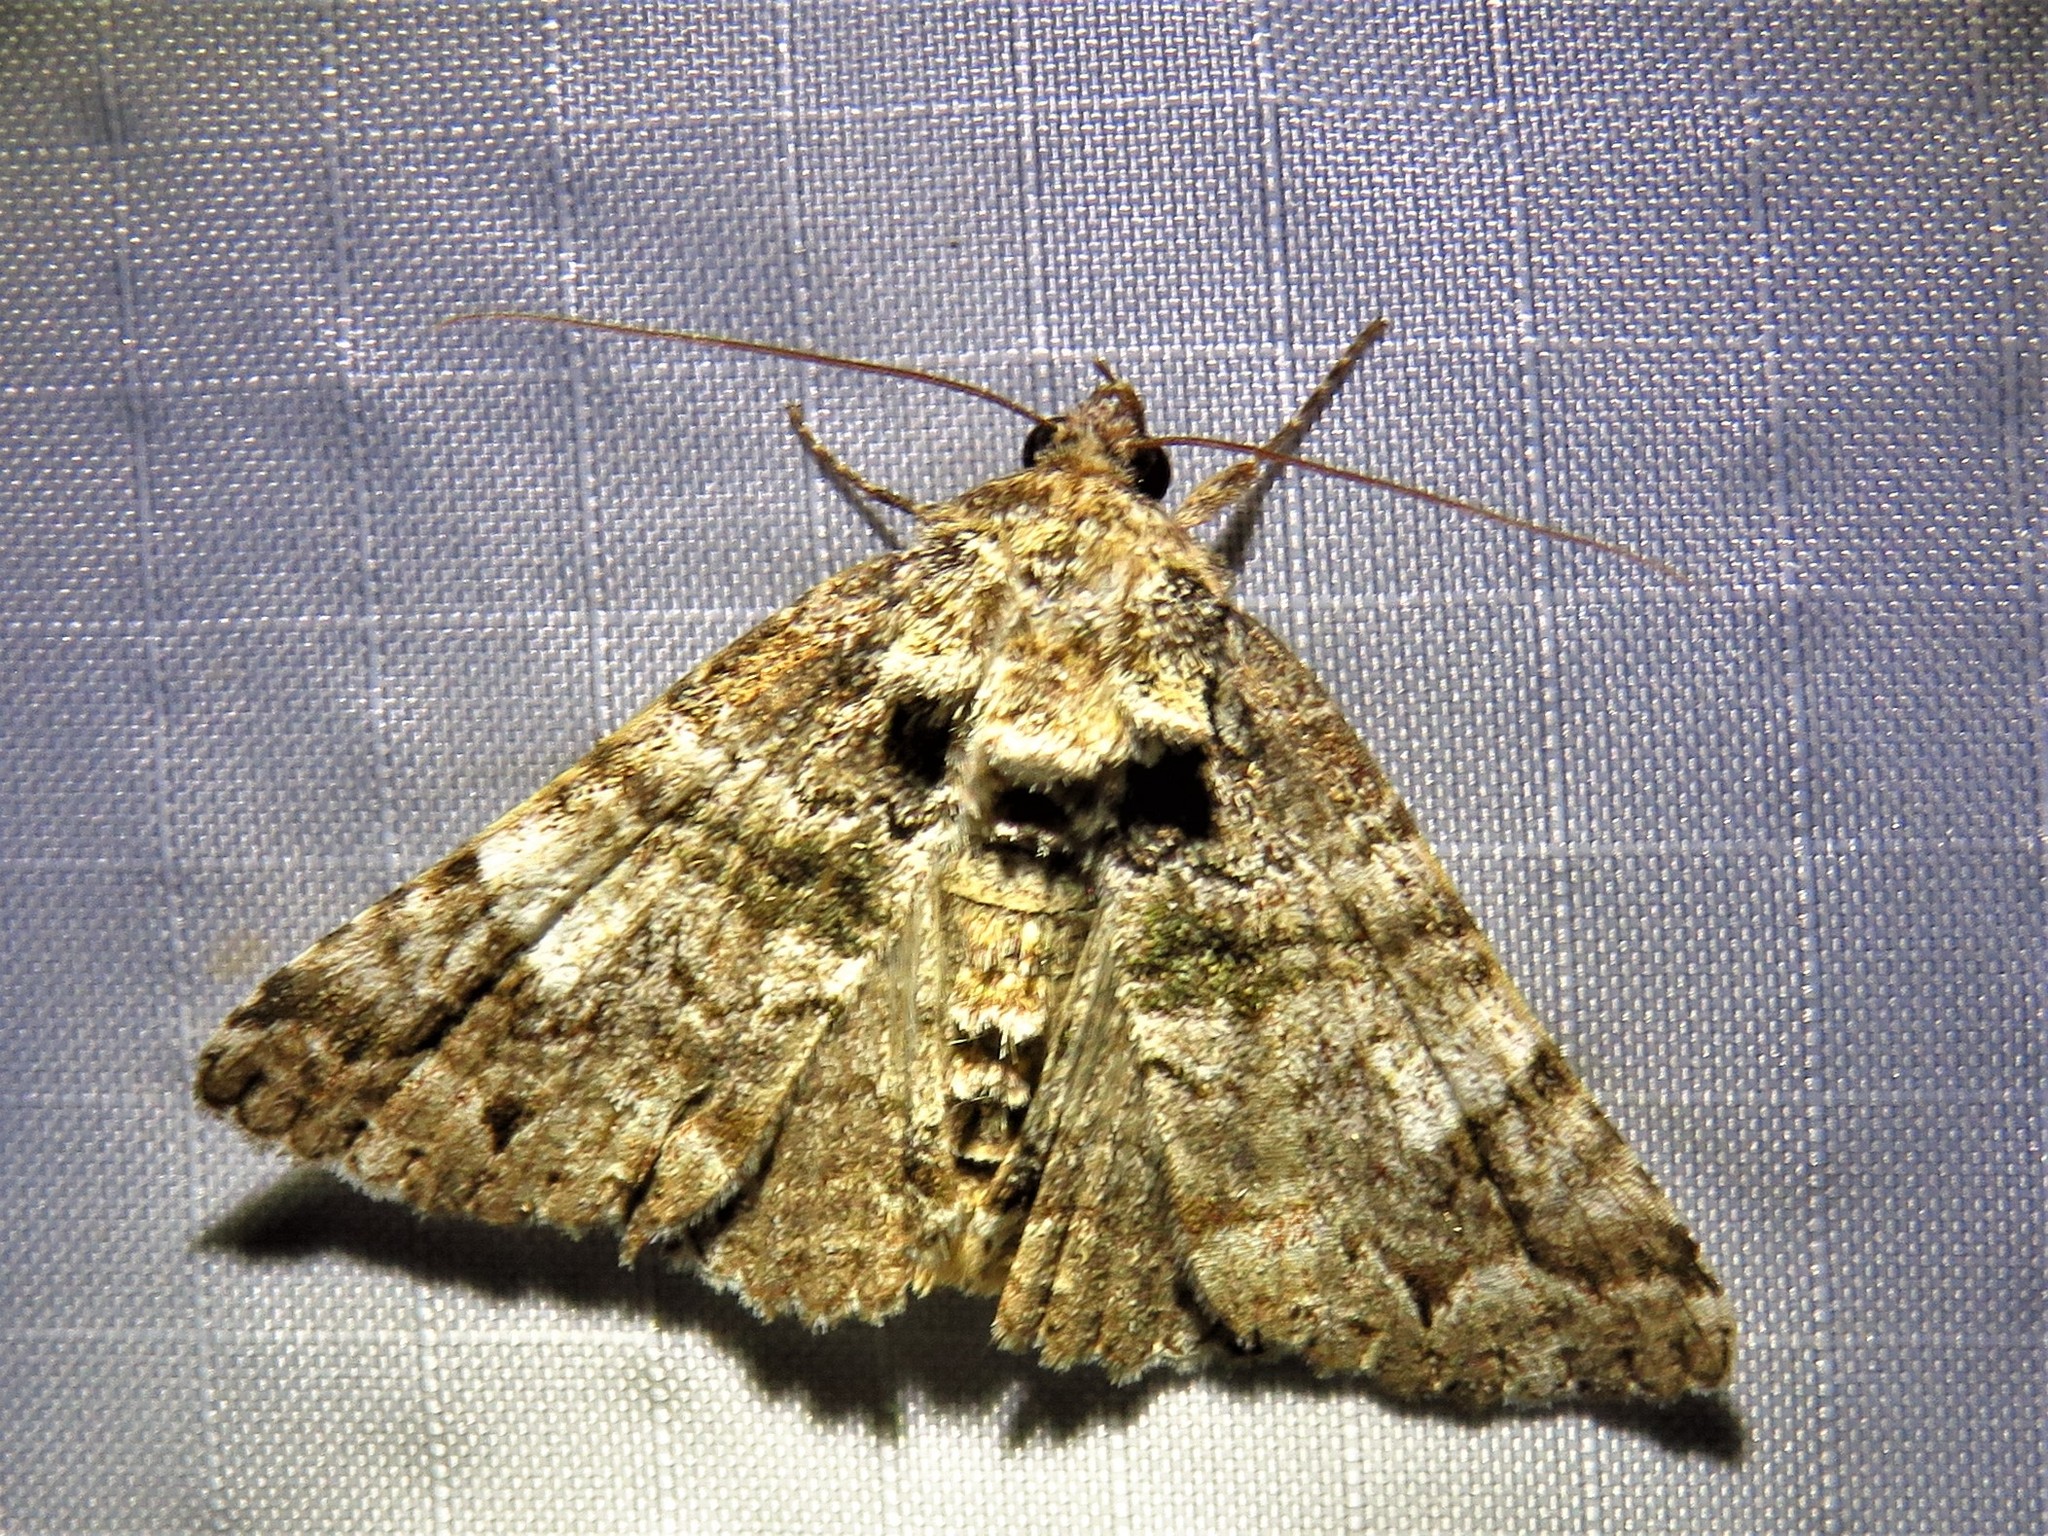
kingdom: Animalia
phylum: Arthropoda
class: Insecta
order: Lepidoptera
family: Erebidae
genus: Metria
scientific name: Metria amella
